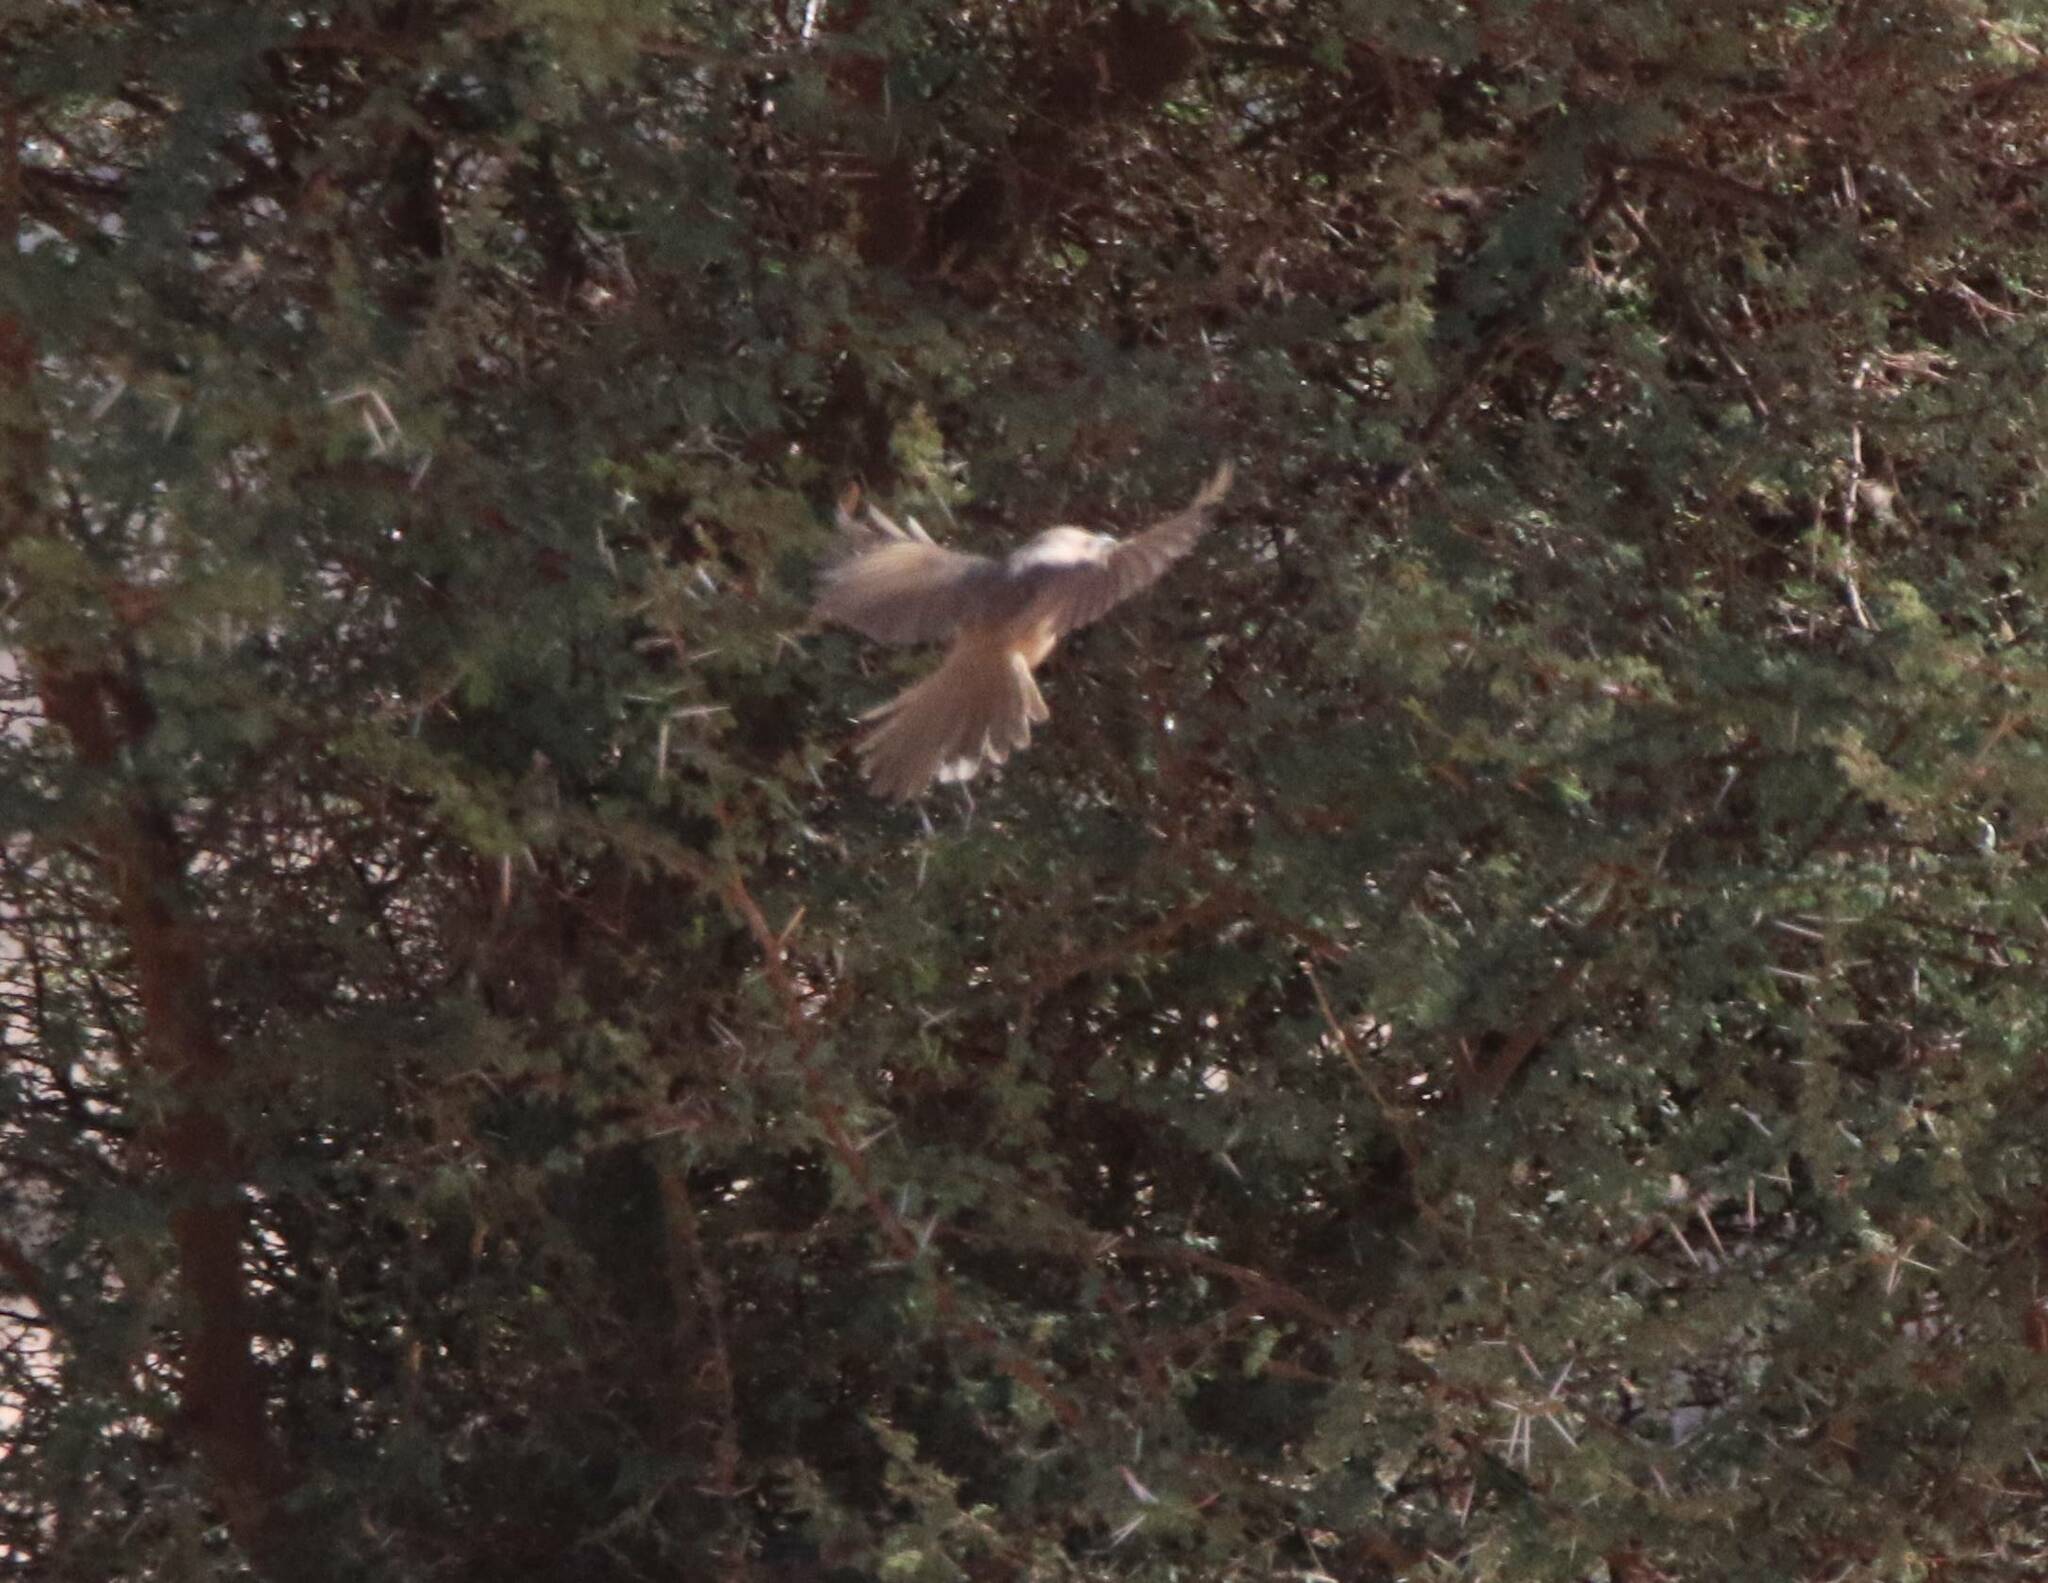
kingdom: Animalia
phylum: Chordata
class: Aves
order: Passeriformes
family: Leiothrichidae
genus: Turdoides
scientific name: Turdoides fulva
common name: Fulvous babbler
